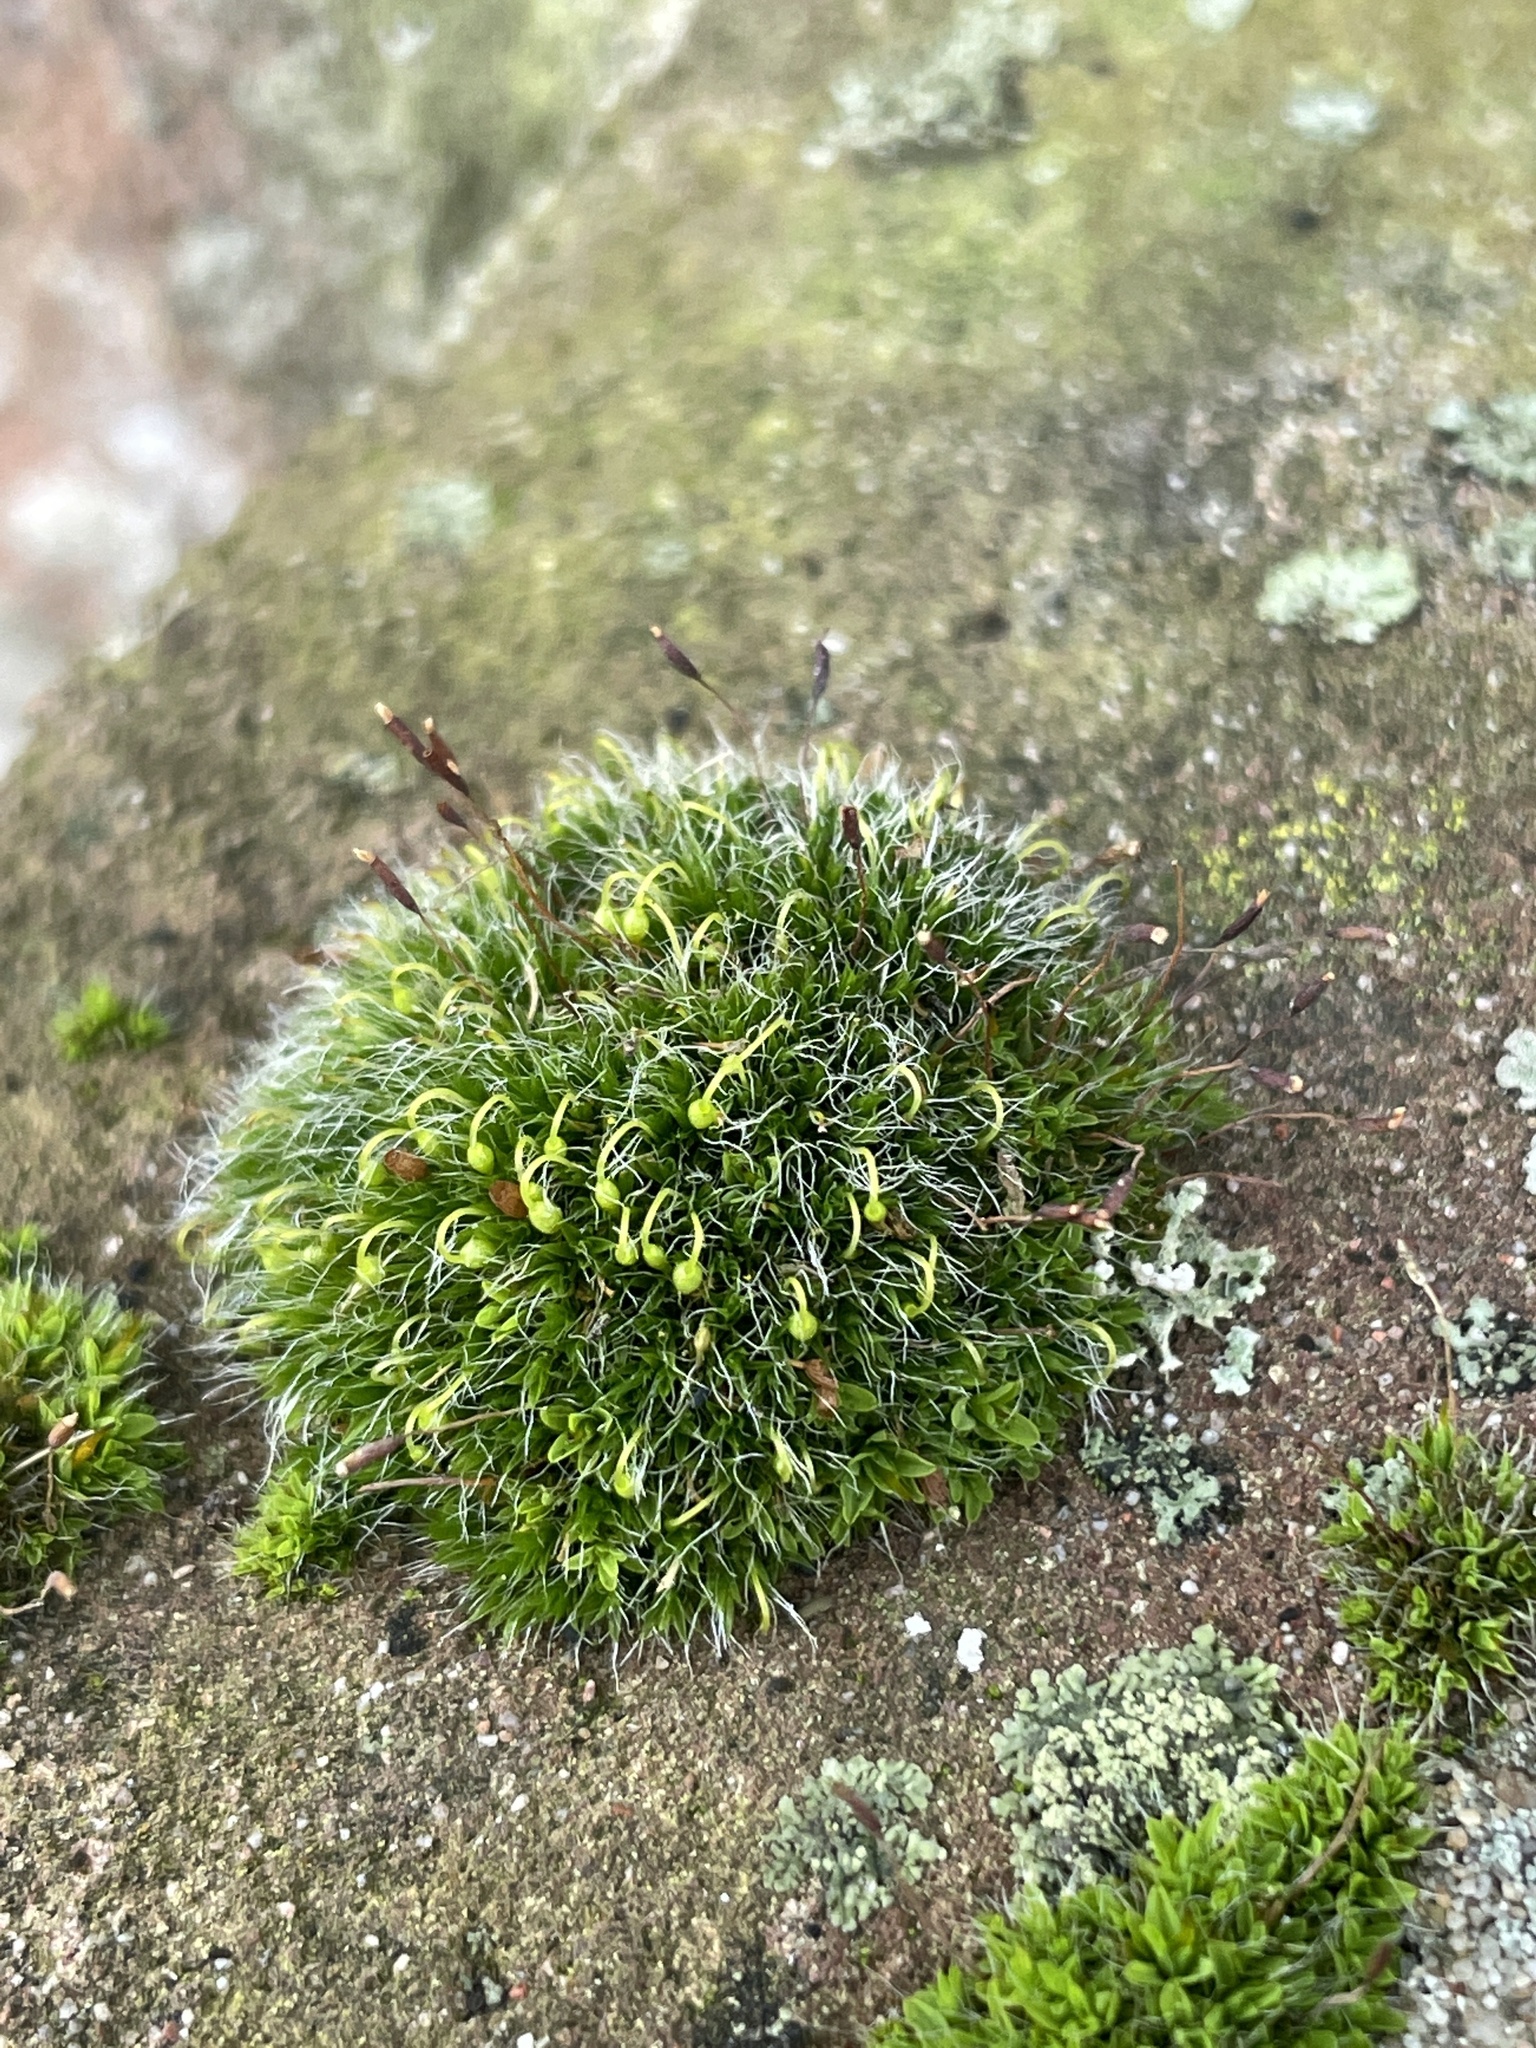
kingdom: Plantae
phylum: Bryophyta
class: Bryopsida
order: Grimmiales
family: Grimmiaceae
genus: Grimmia
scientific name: Grimmia pulvinata
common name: Grey-cushioned grimmia
